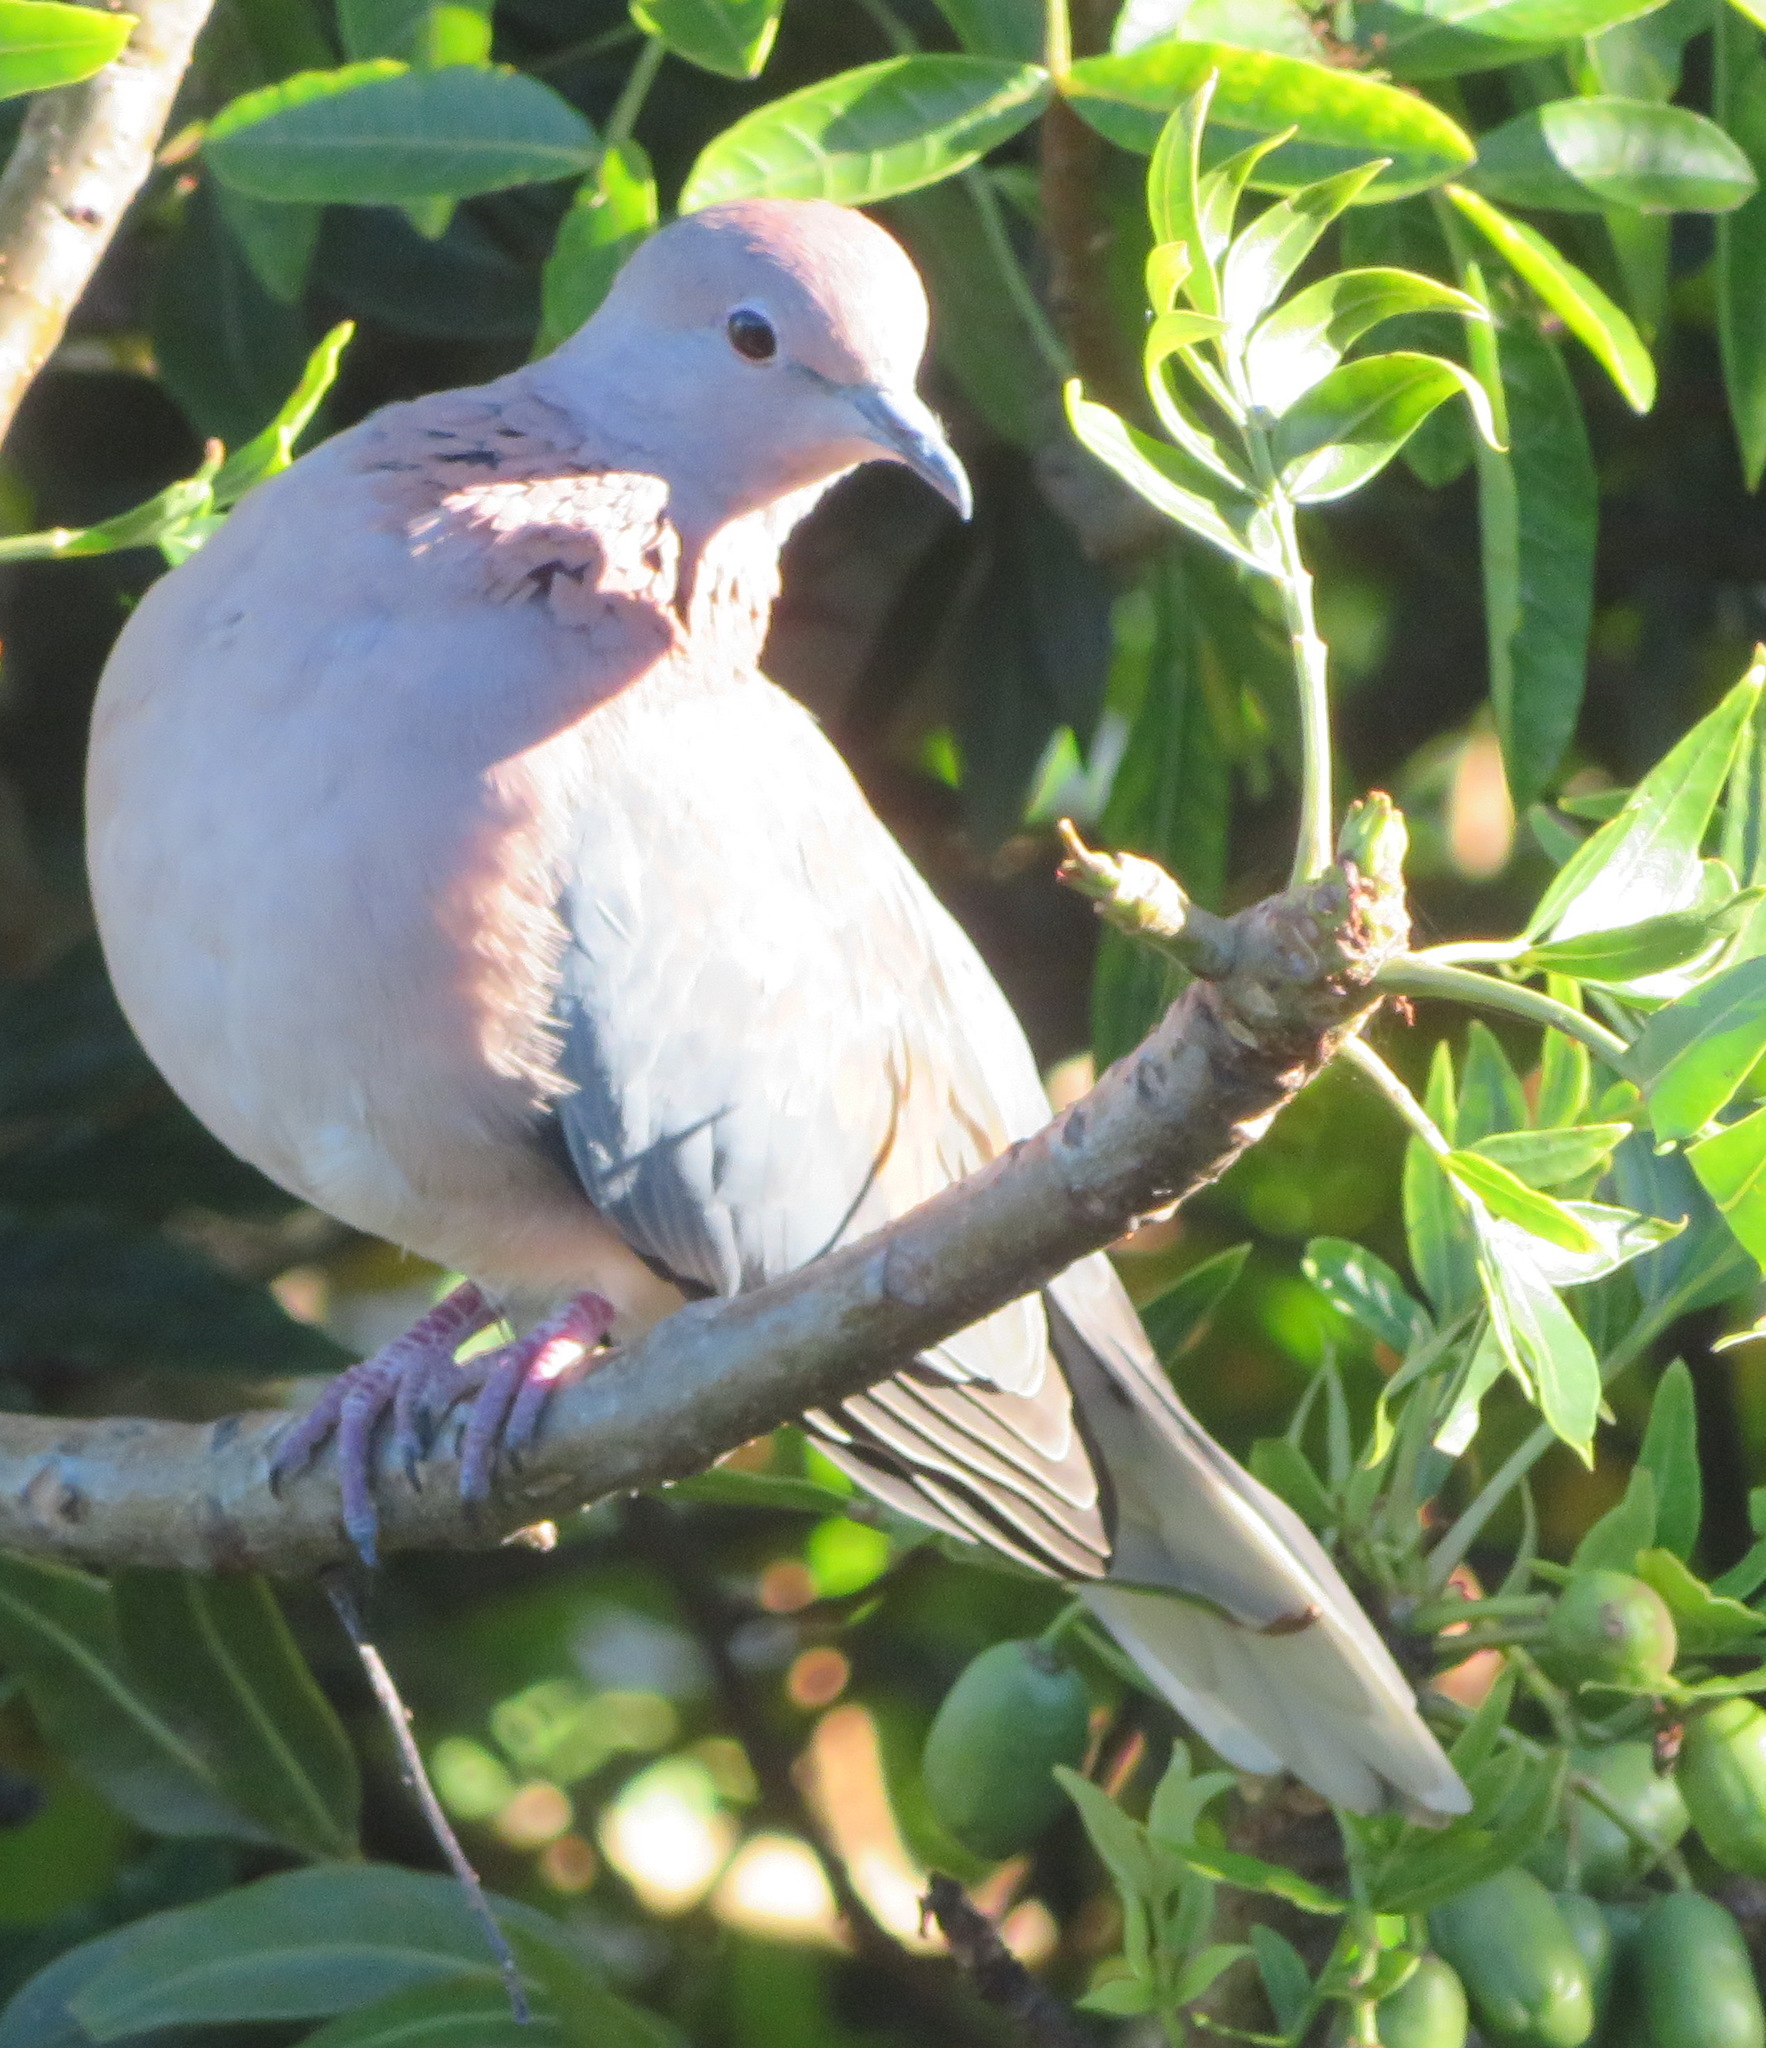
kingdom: Animalia
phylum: Chordata
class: Aves
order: Columbiformes
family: Columbidae
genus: Spilopelia
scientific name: Spilopelia senegalensis
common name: Laughing dove
